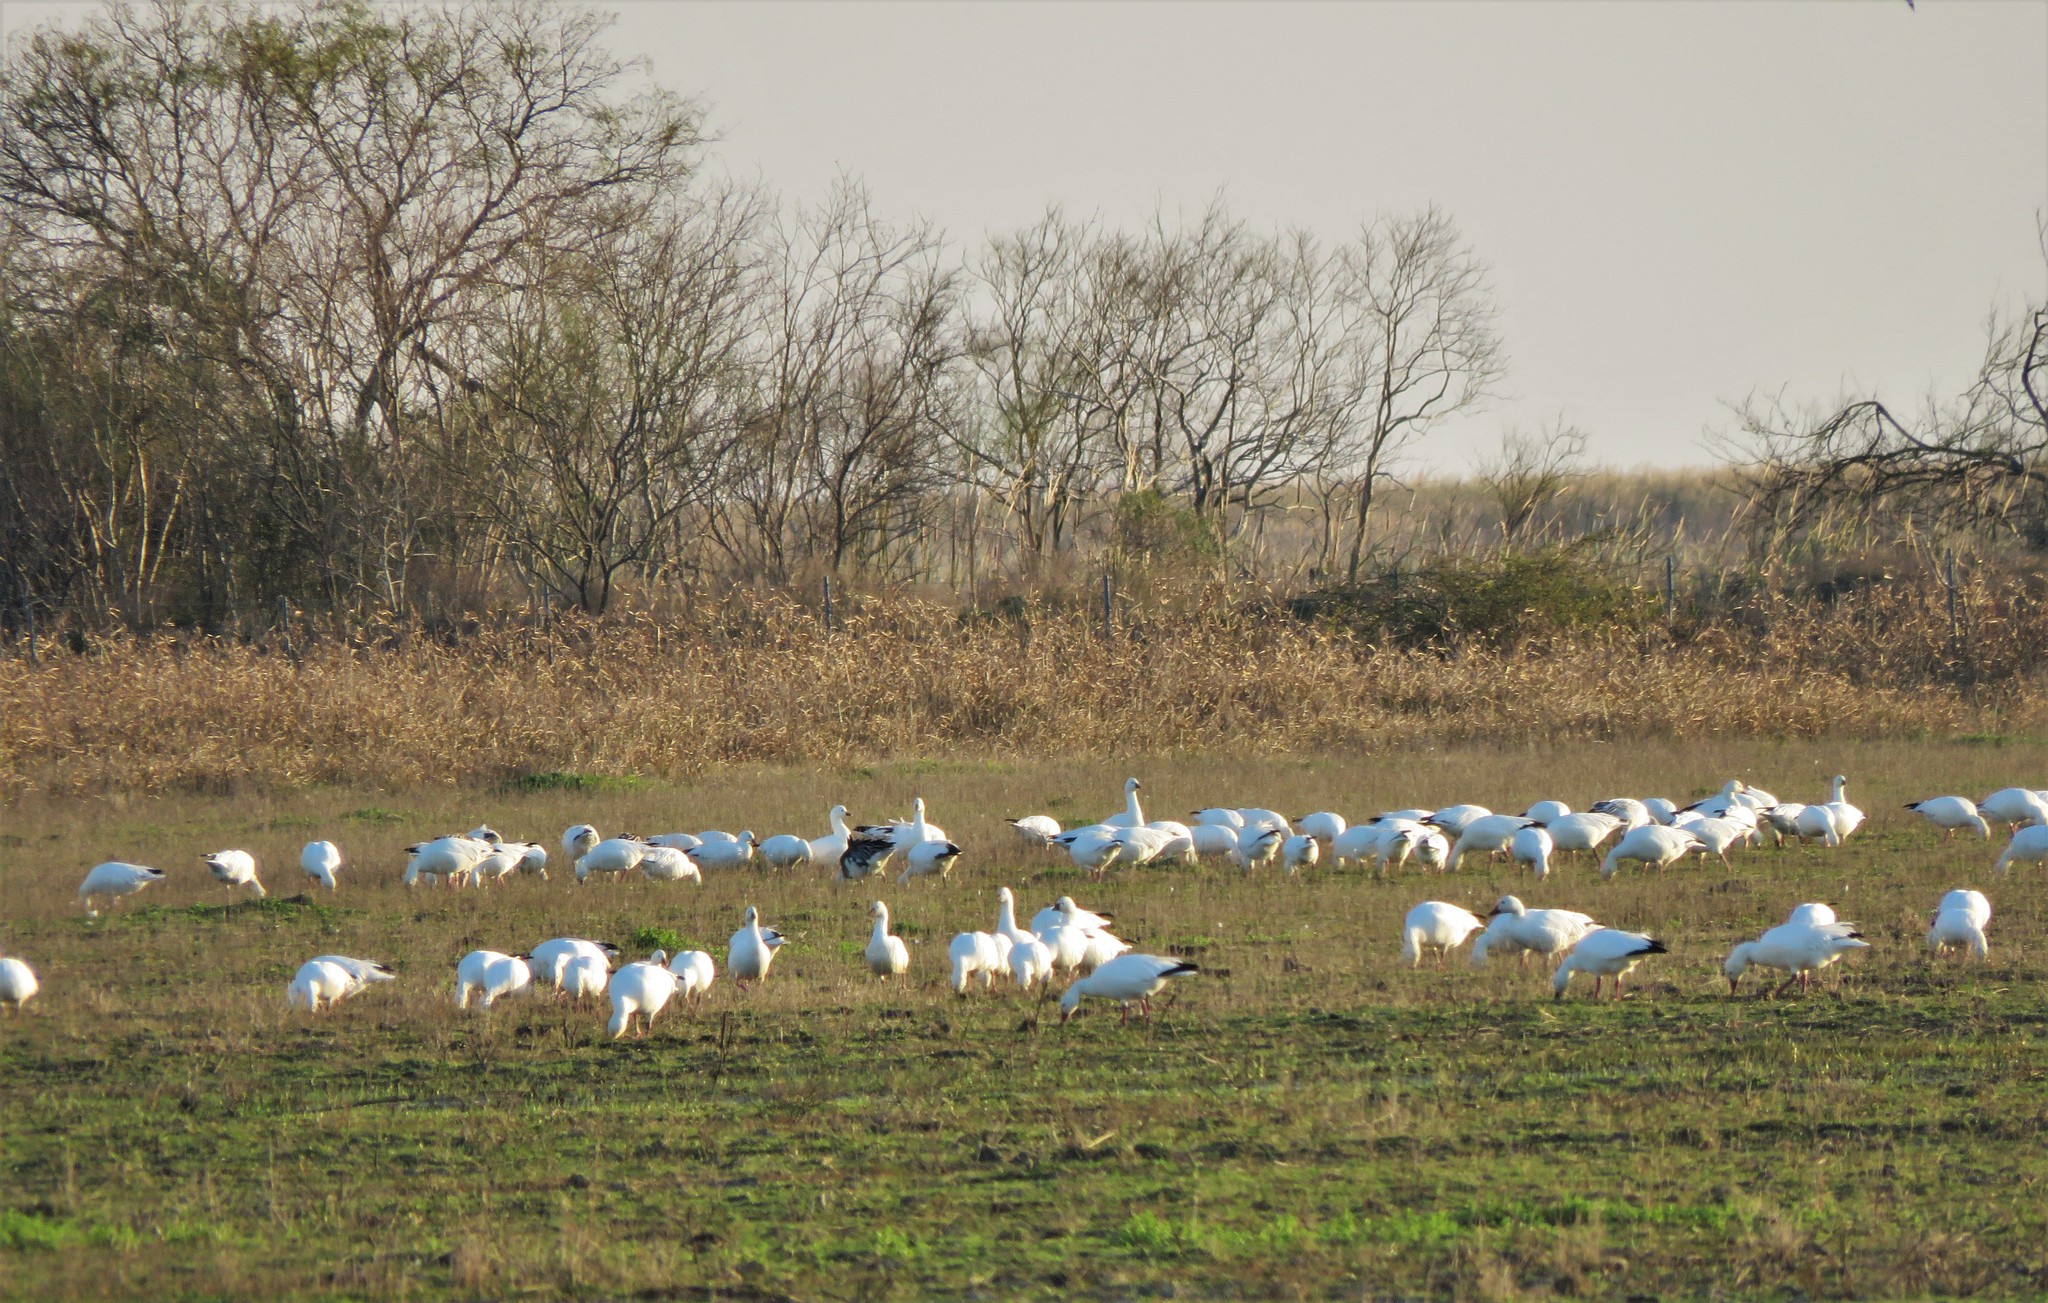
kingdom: Animalia
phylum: Chordata
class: Aves
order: Anseriformes
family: Anatidae
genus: Anser
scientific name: Anser caerulescens
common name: Snow goose
